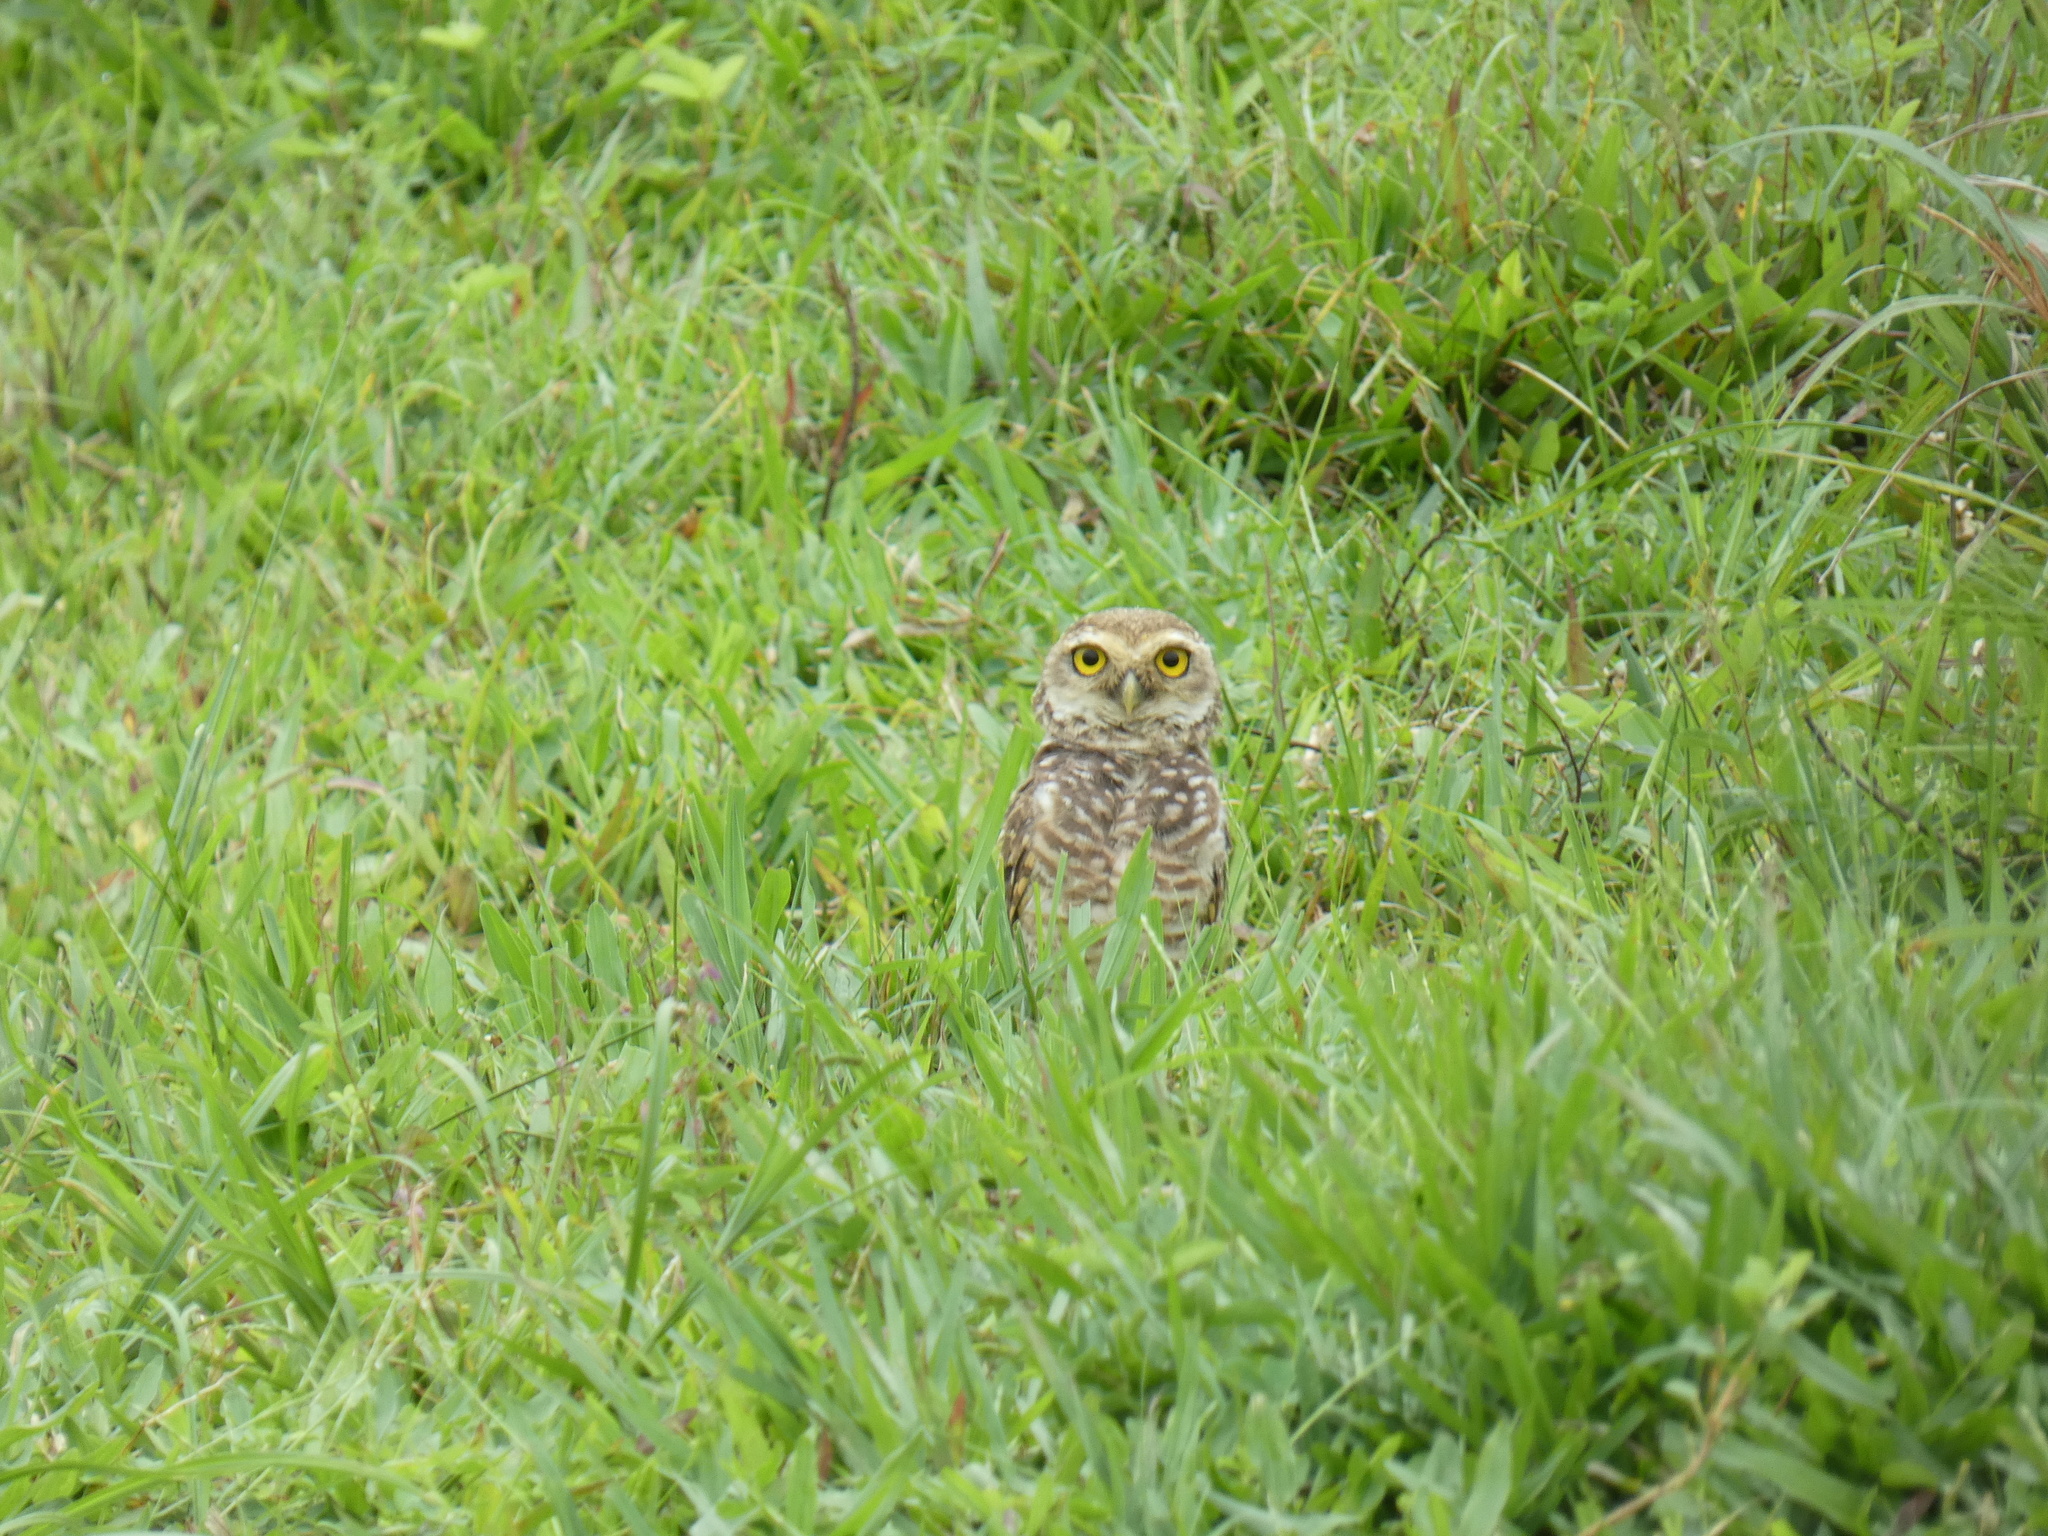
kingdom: Animalia
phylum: Chordata
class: Aves
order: Strigiformes
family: Strigidae
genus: Athene
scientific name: Athene cunicularia
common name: Burrowing owl
